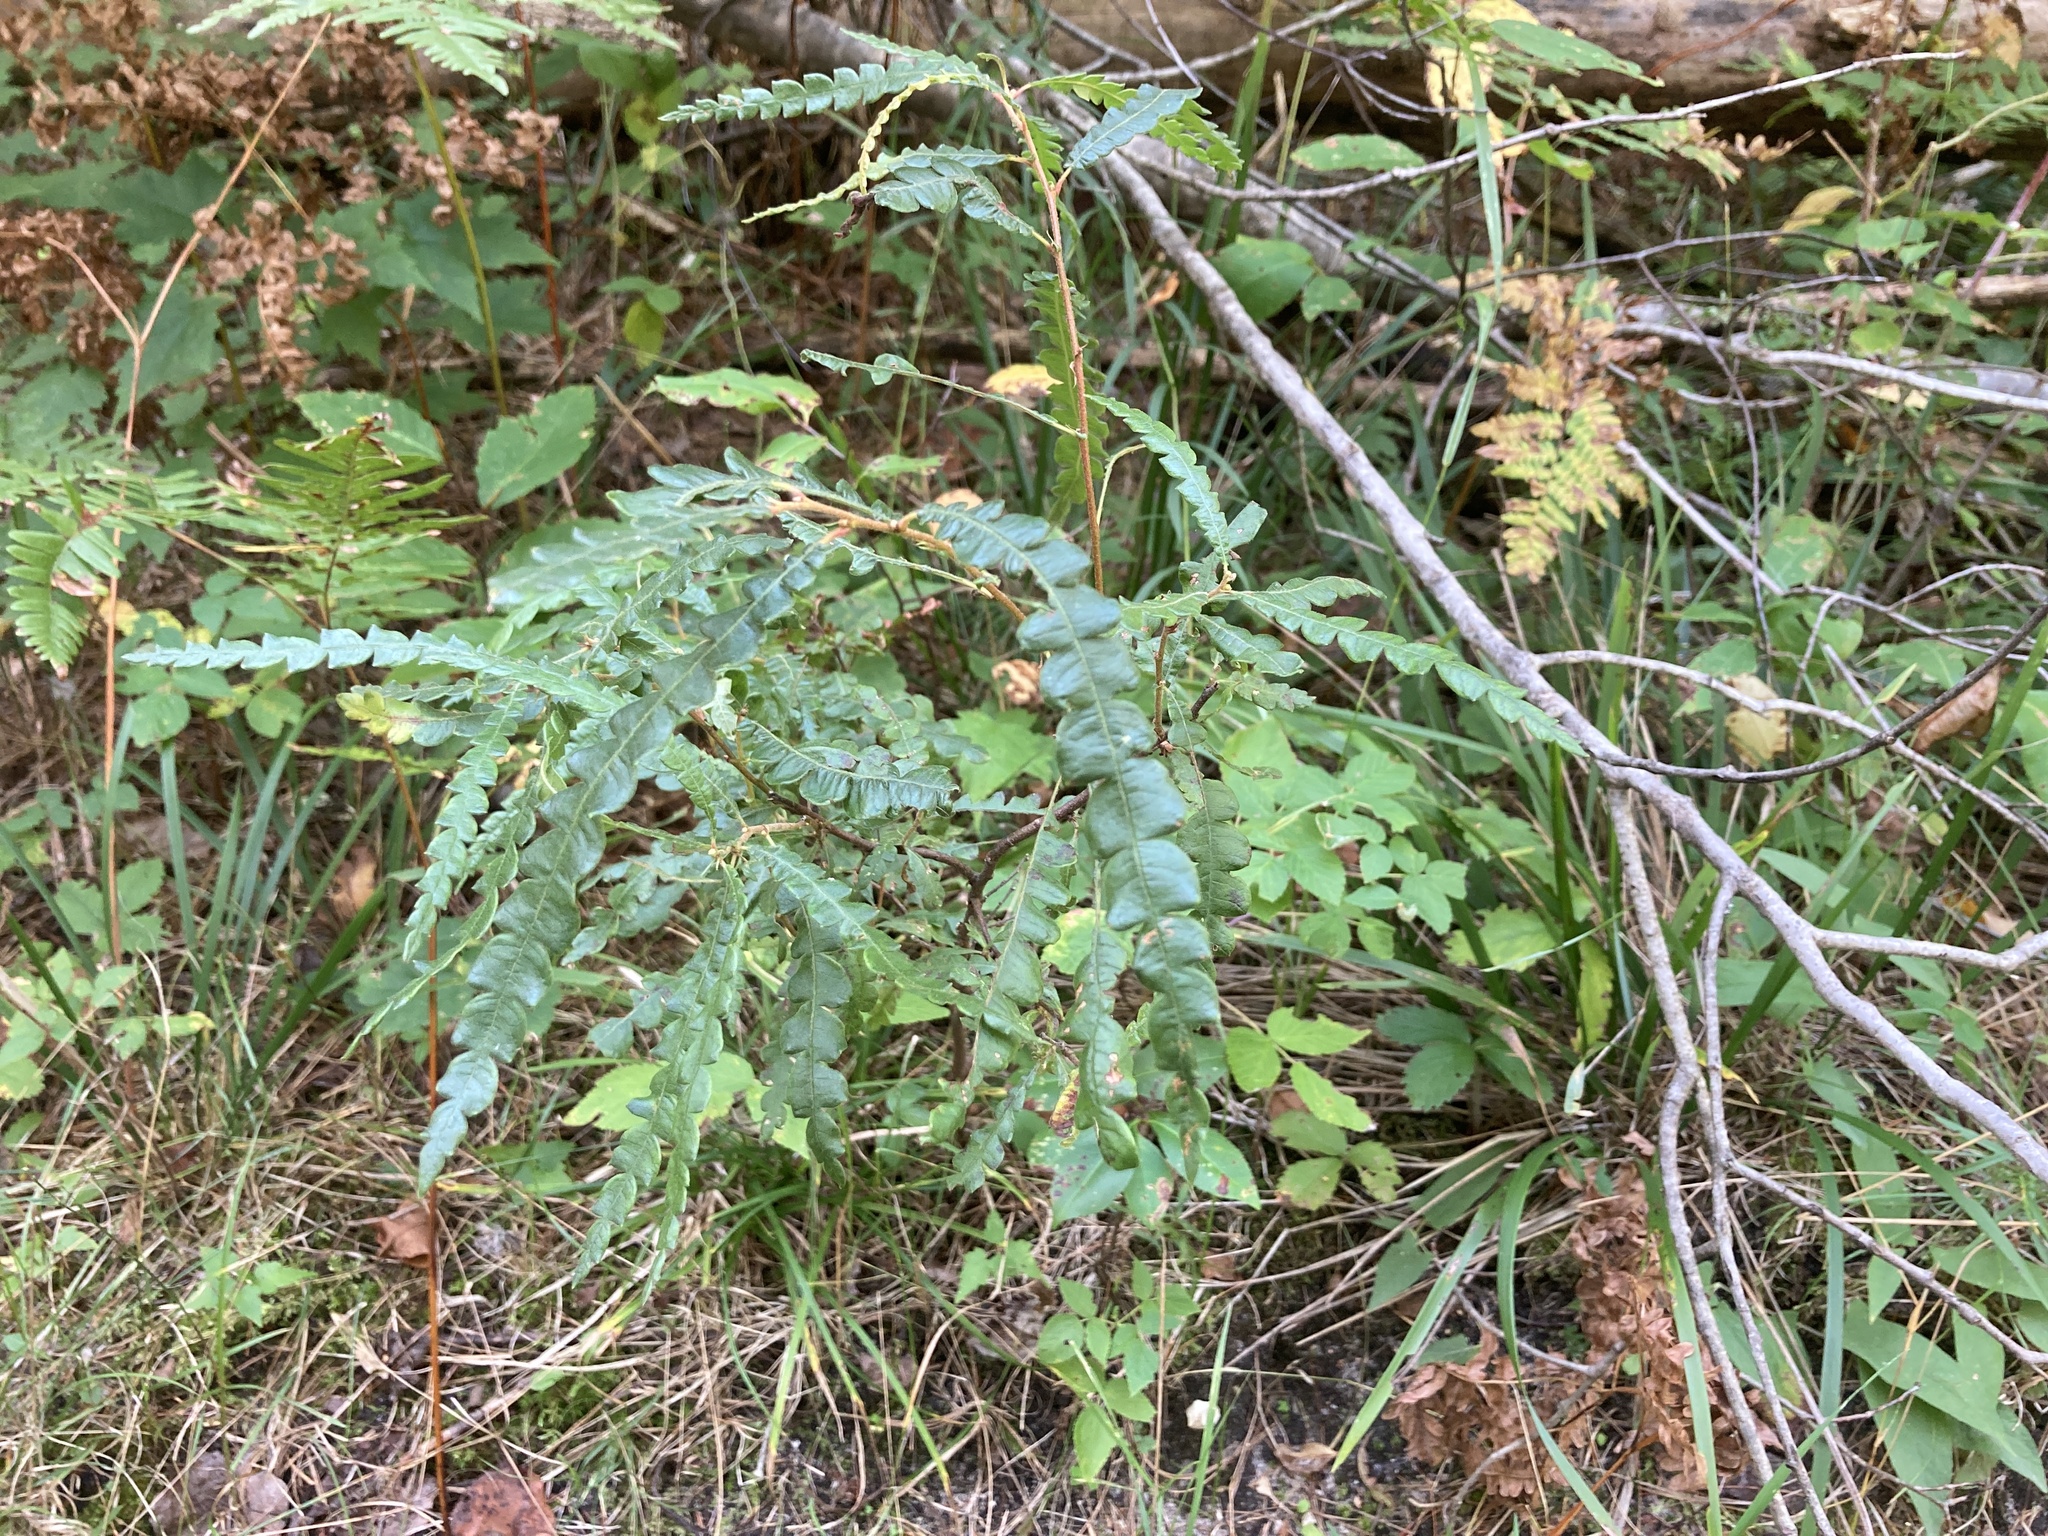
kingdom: Plantae
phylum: Tracheophyta
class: Magnoliopsida
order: Fagales
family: Myricaceae
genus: Comptonia
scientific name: Comptonia peregrina
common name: Sweet-fern
